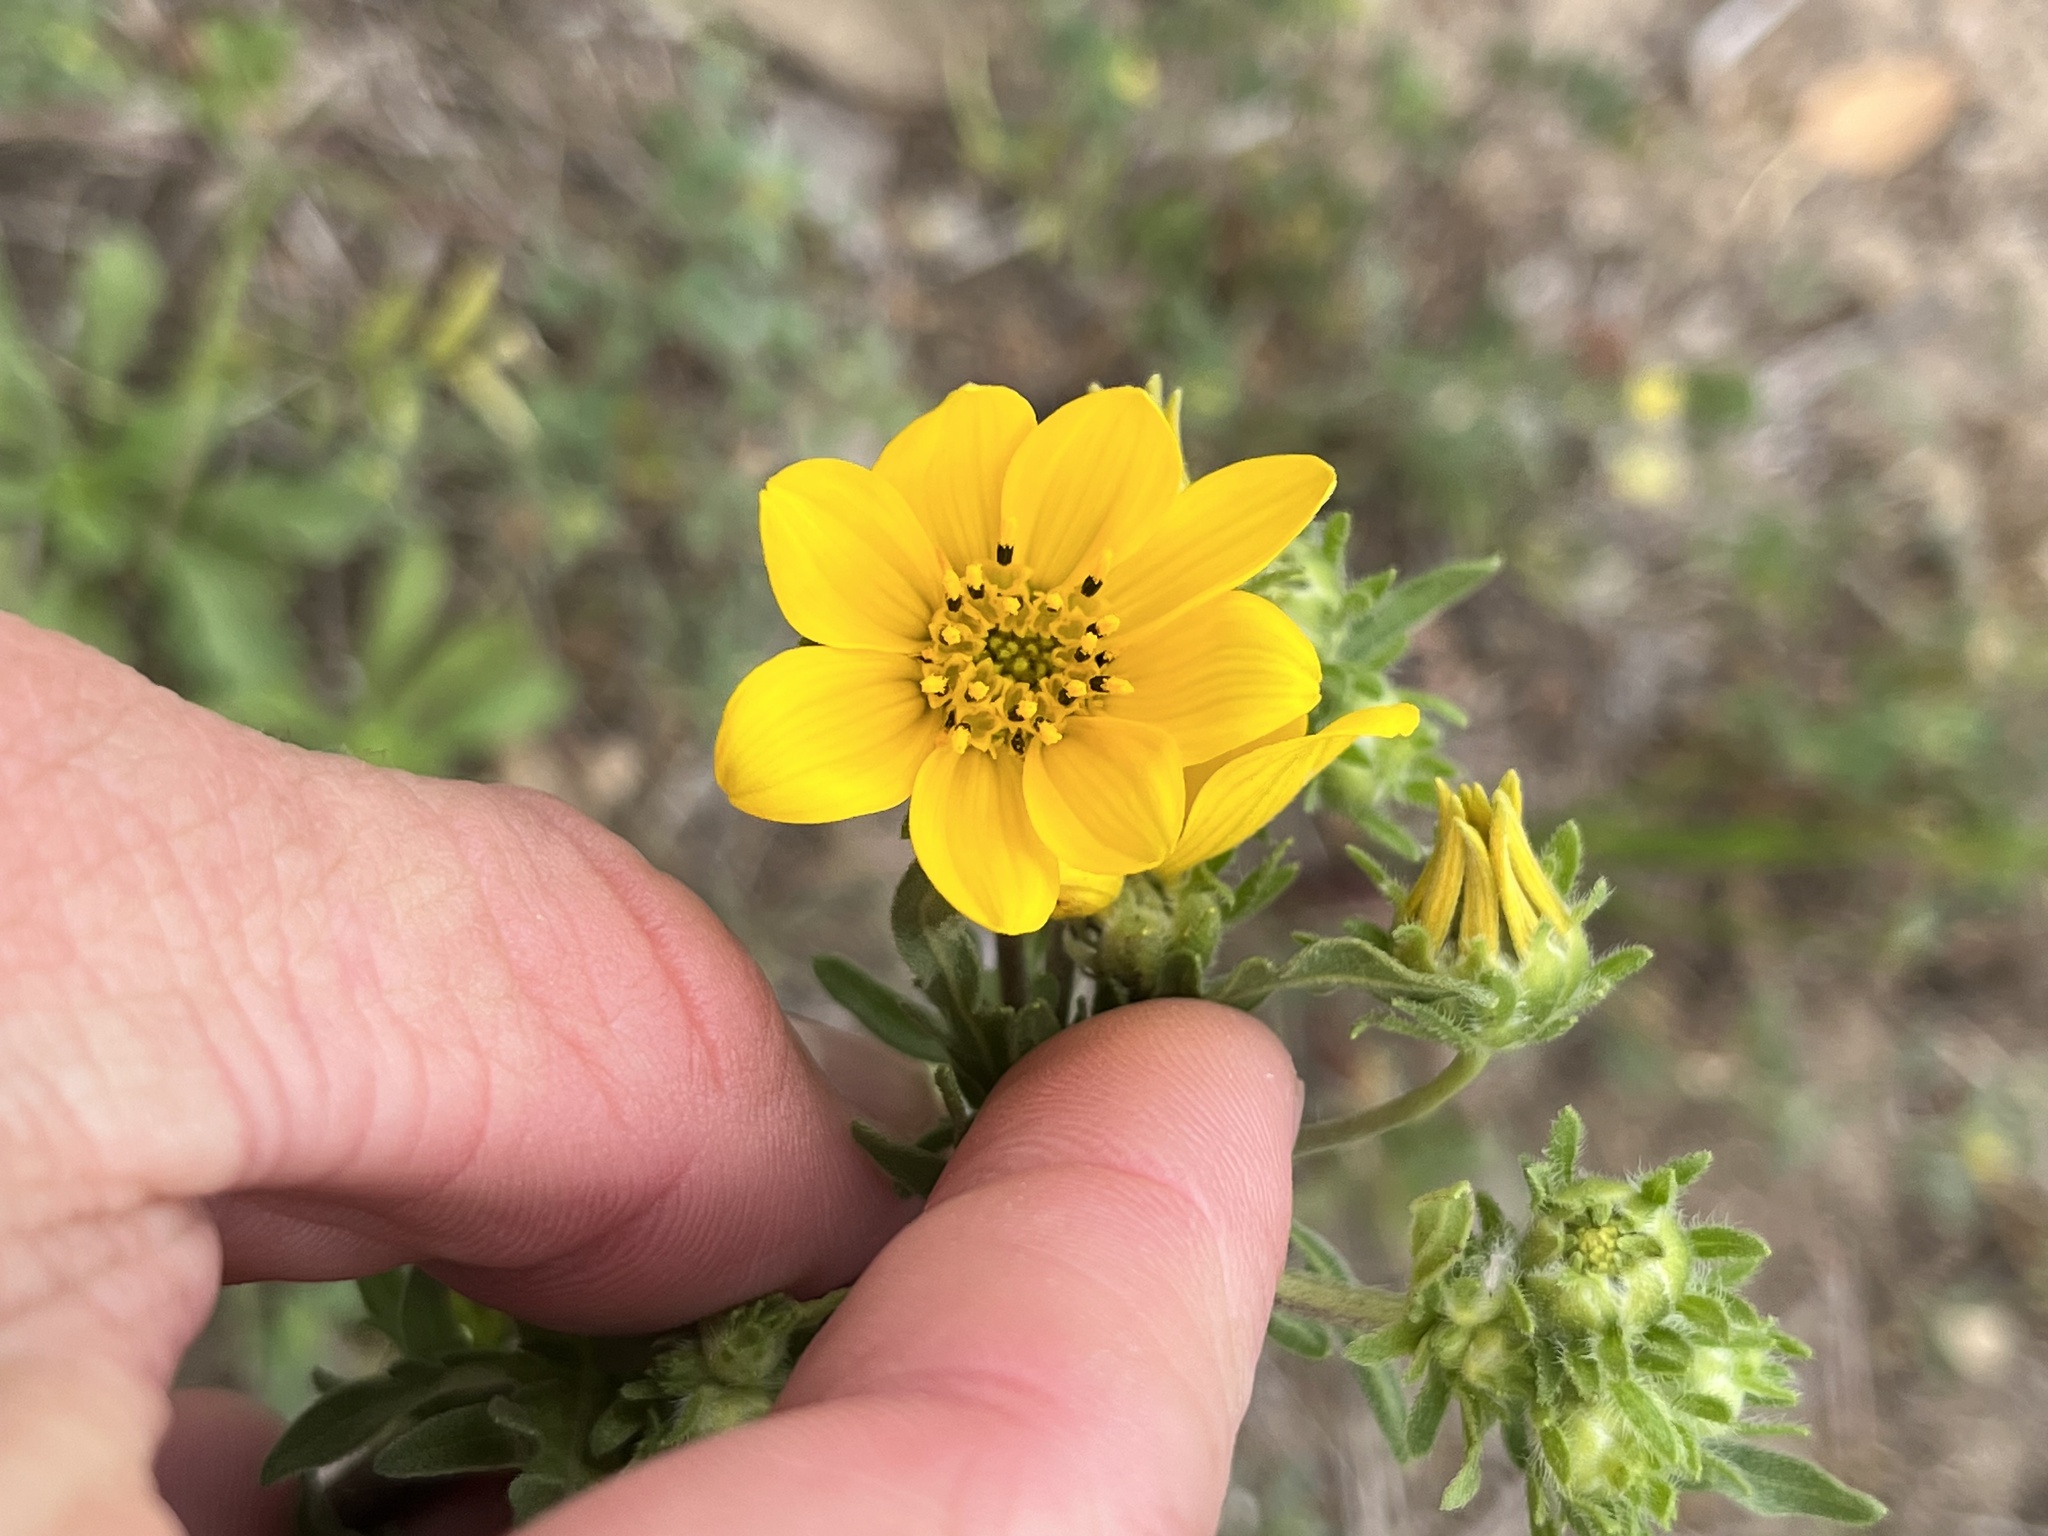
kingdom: Plantae
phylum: Tracheophyta
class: Magnoliopsida
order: Asterales
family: Asteraceae
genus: Engelmannia
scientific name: Engelmannia peristenia
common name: Engelmann's daisy
